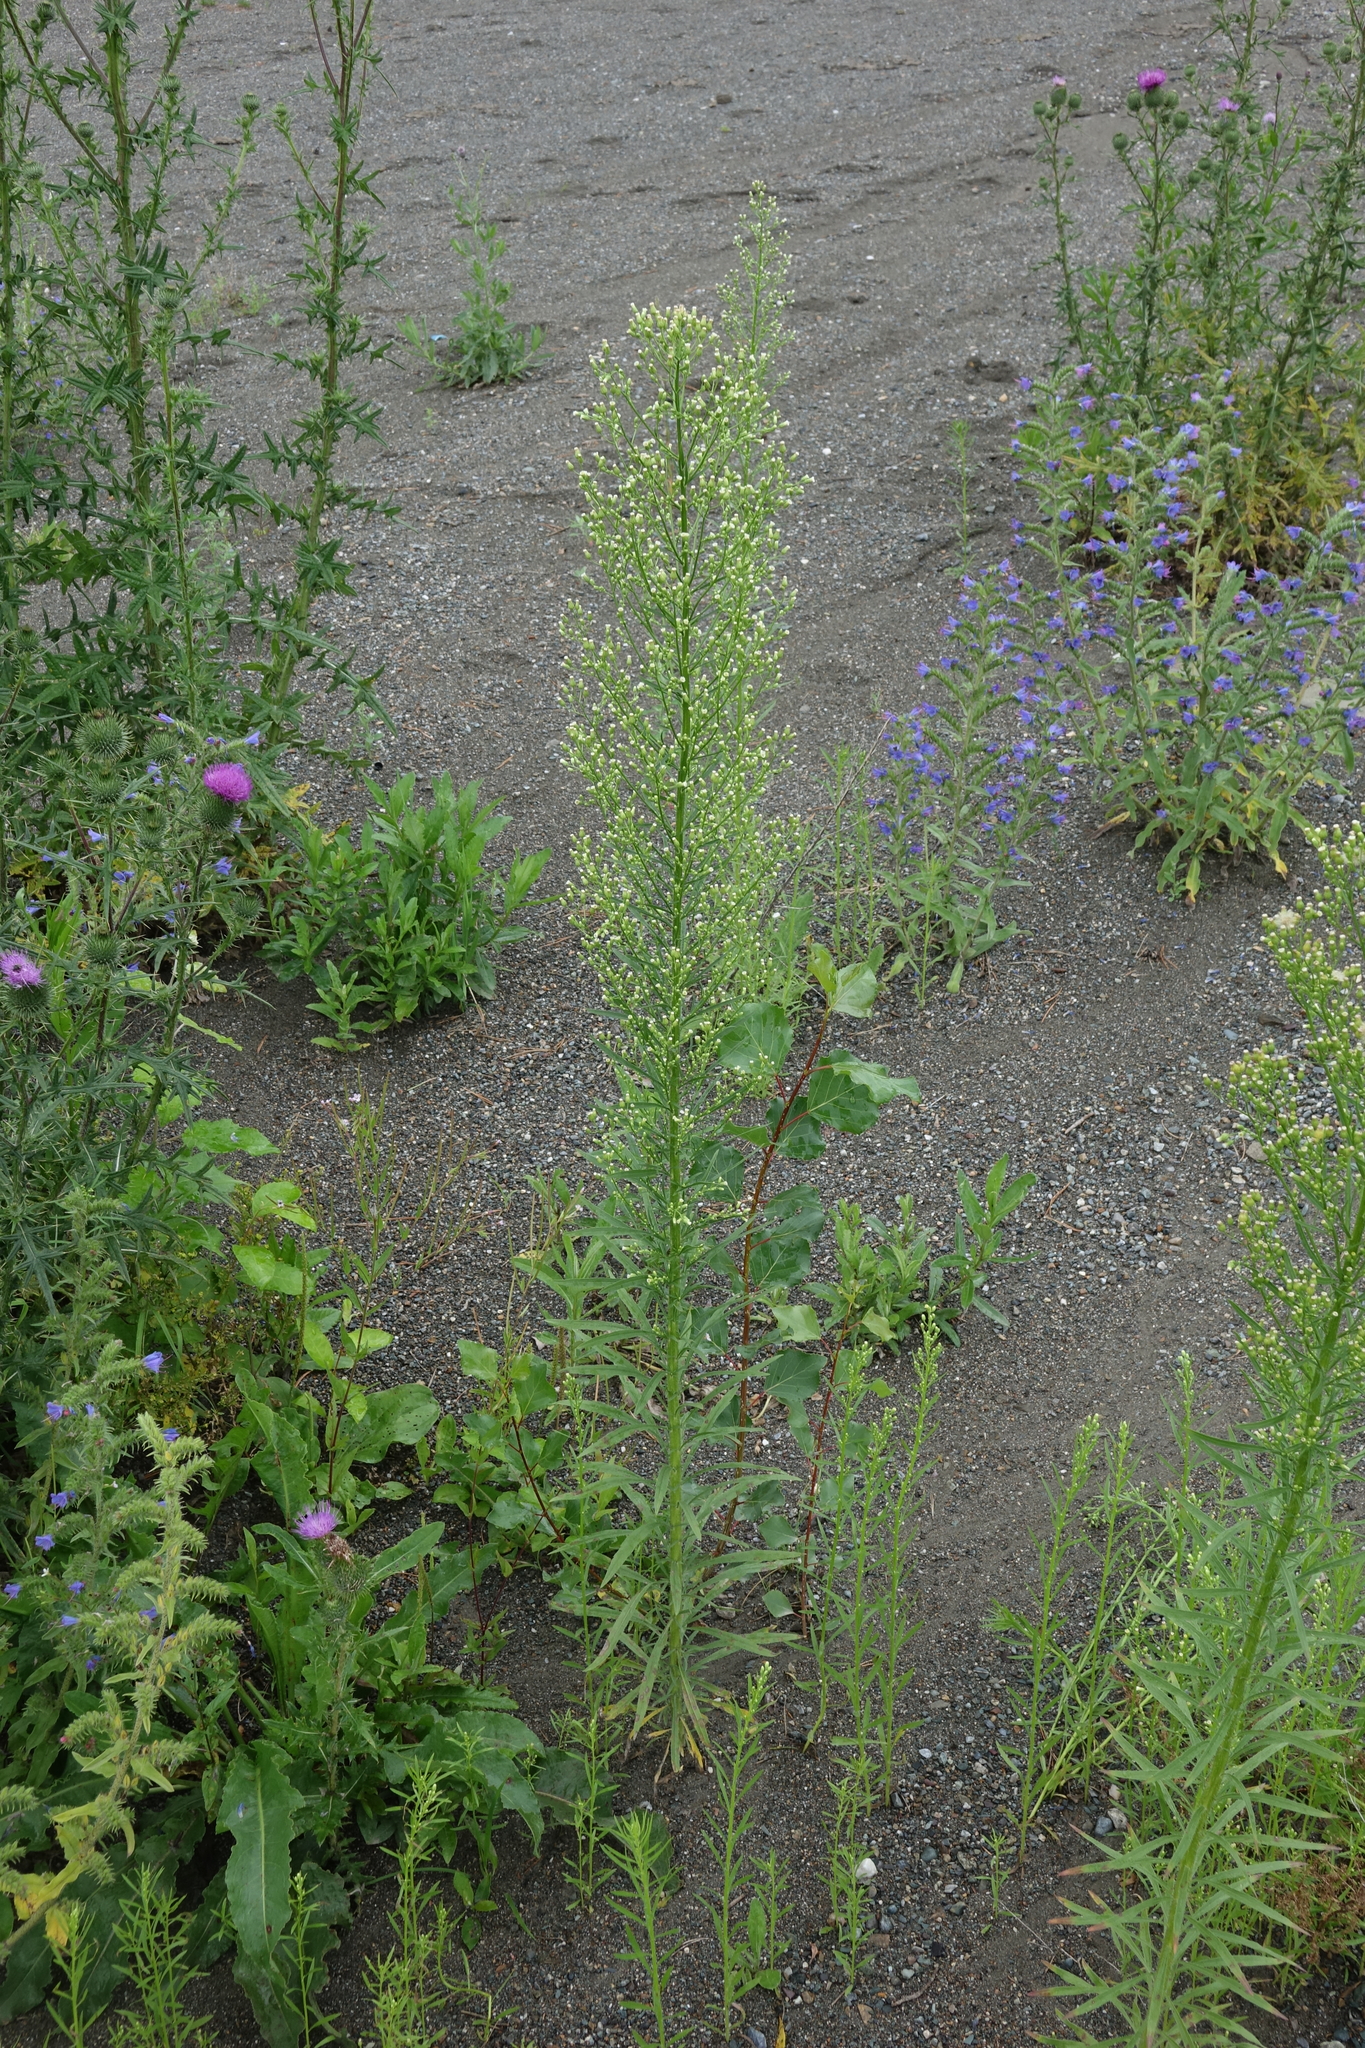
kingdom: Plantae
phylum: Tracheophyta
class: Magnoliopsida
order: Asterales
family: Asteraceae
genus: Erigeron
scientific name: Erigeron canadensis
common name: Canadian fleabane
